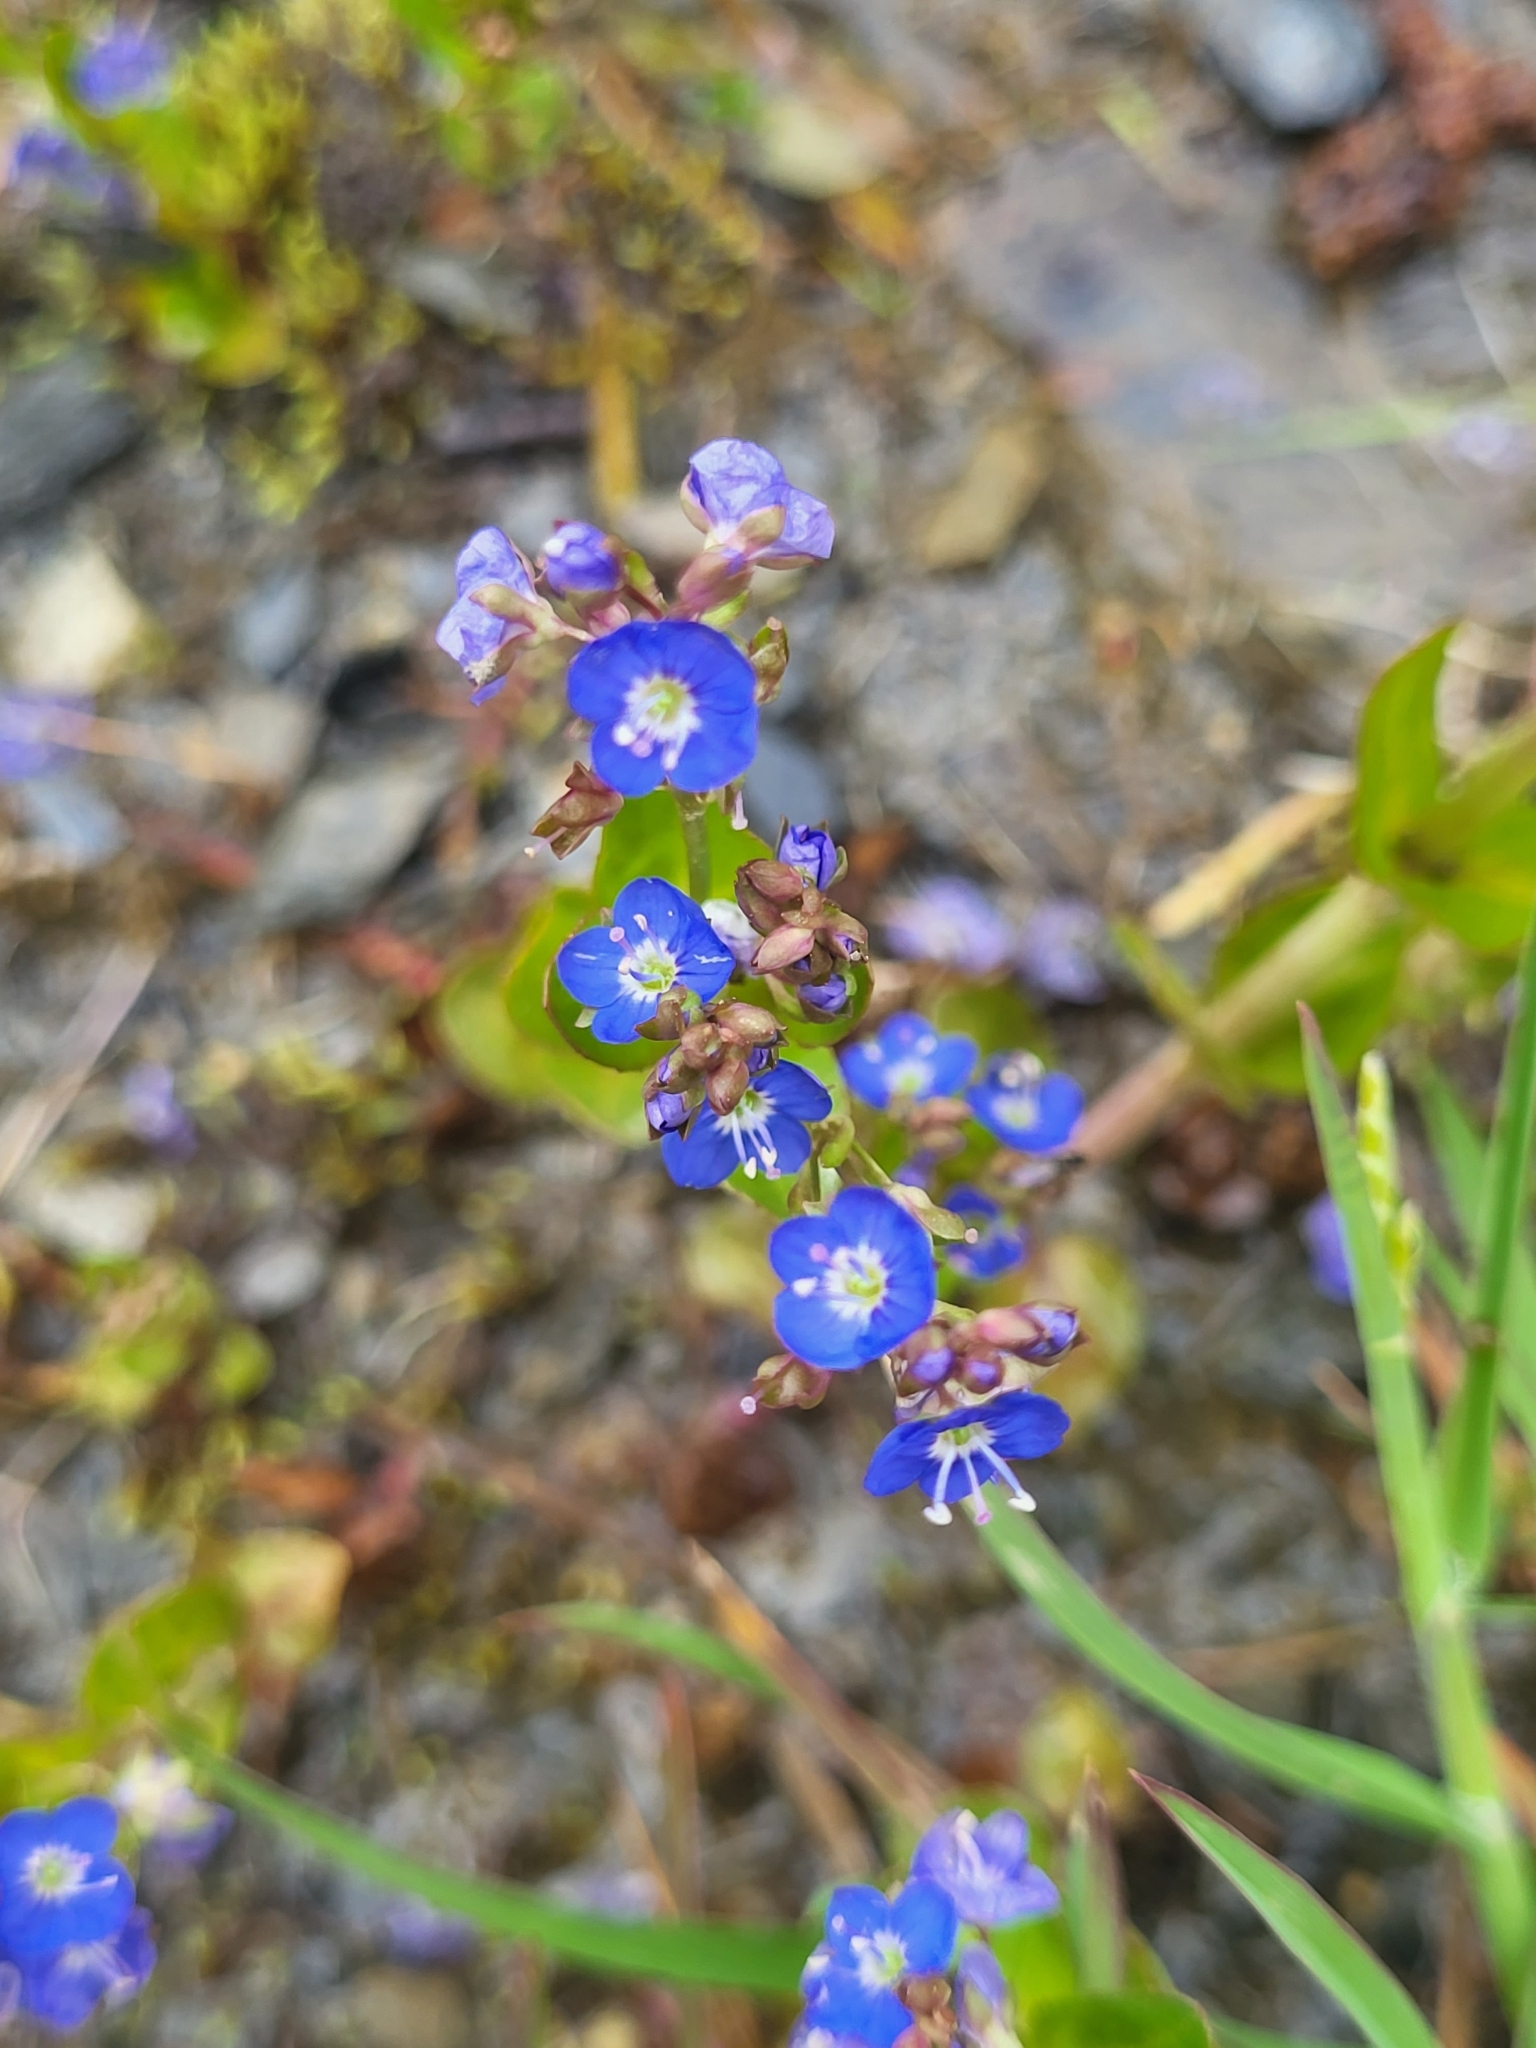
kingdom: Plantae
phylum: Tracheophyta
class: Magnoliopsida
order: Lamiales
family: Plantaginaceae
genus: Veronica
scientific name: Veronica beccabunga
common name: Brooklime
